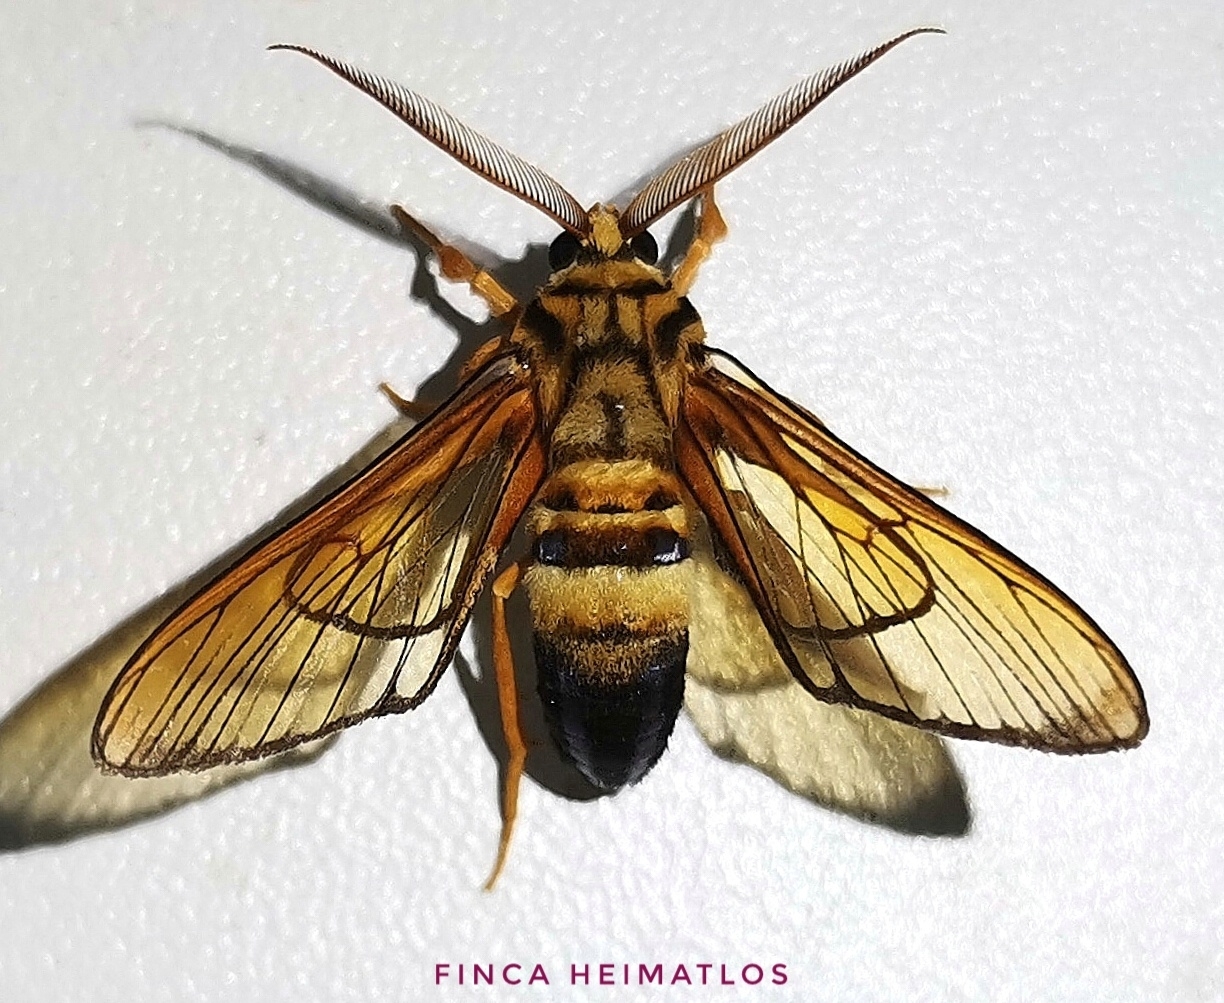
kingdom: Animalia
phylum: Arthropoda
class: Insecta
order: Lepidoptera
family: Erebidae
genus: Sarosa
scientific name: Sarosa acutior
